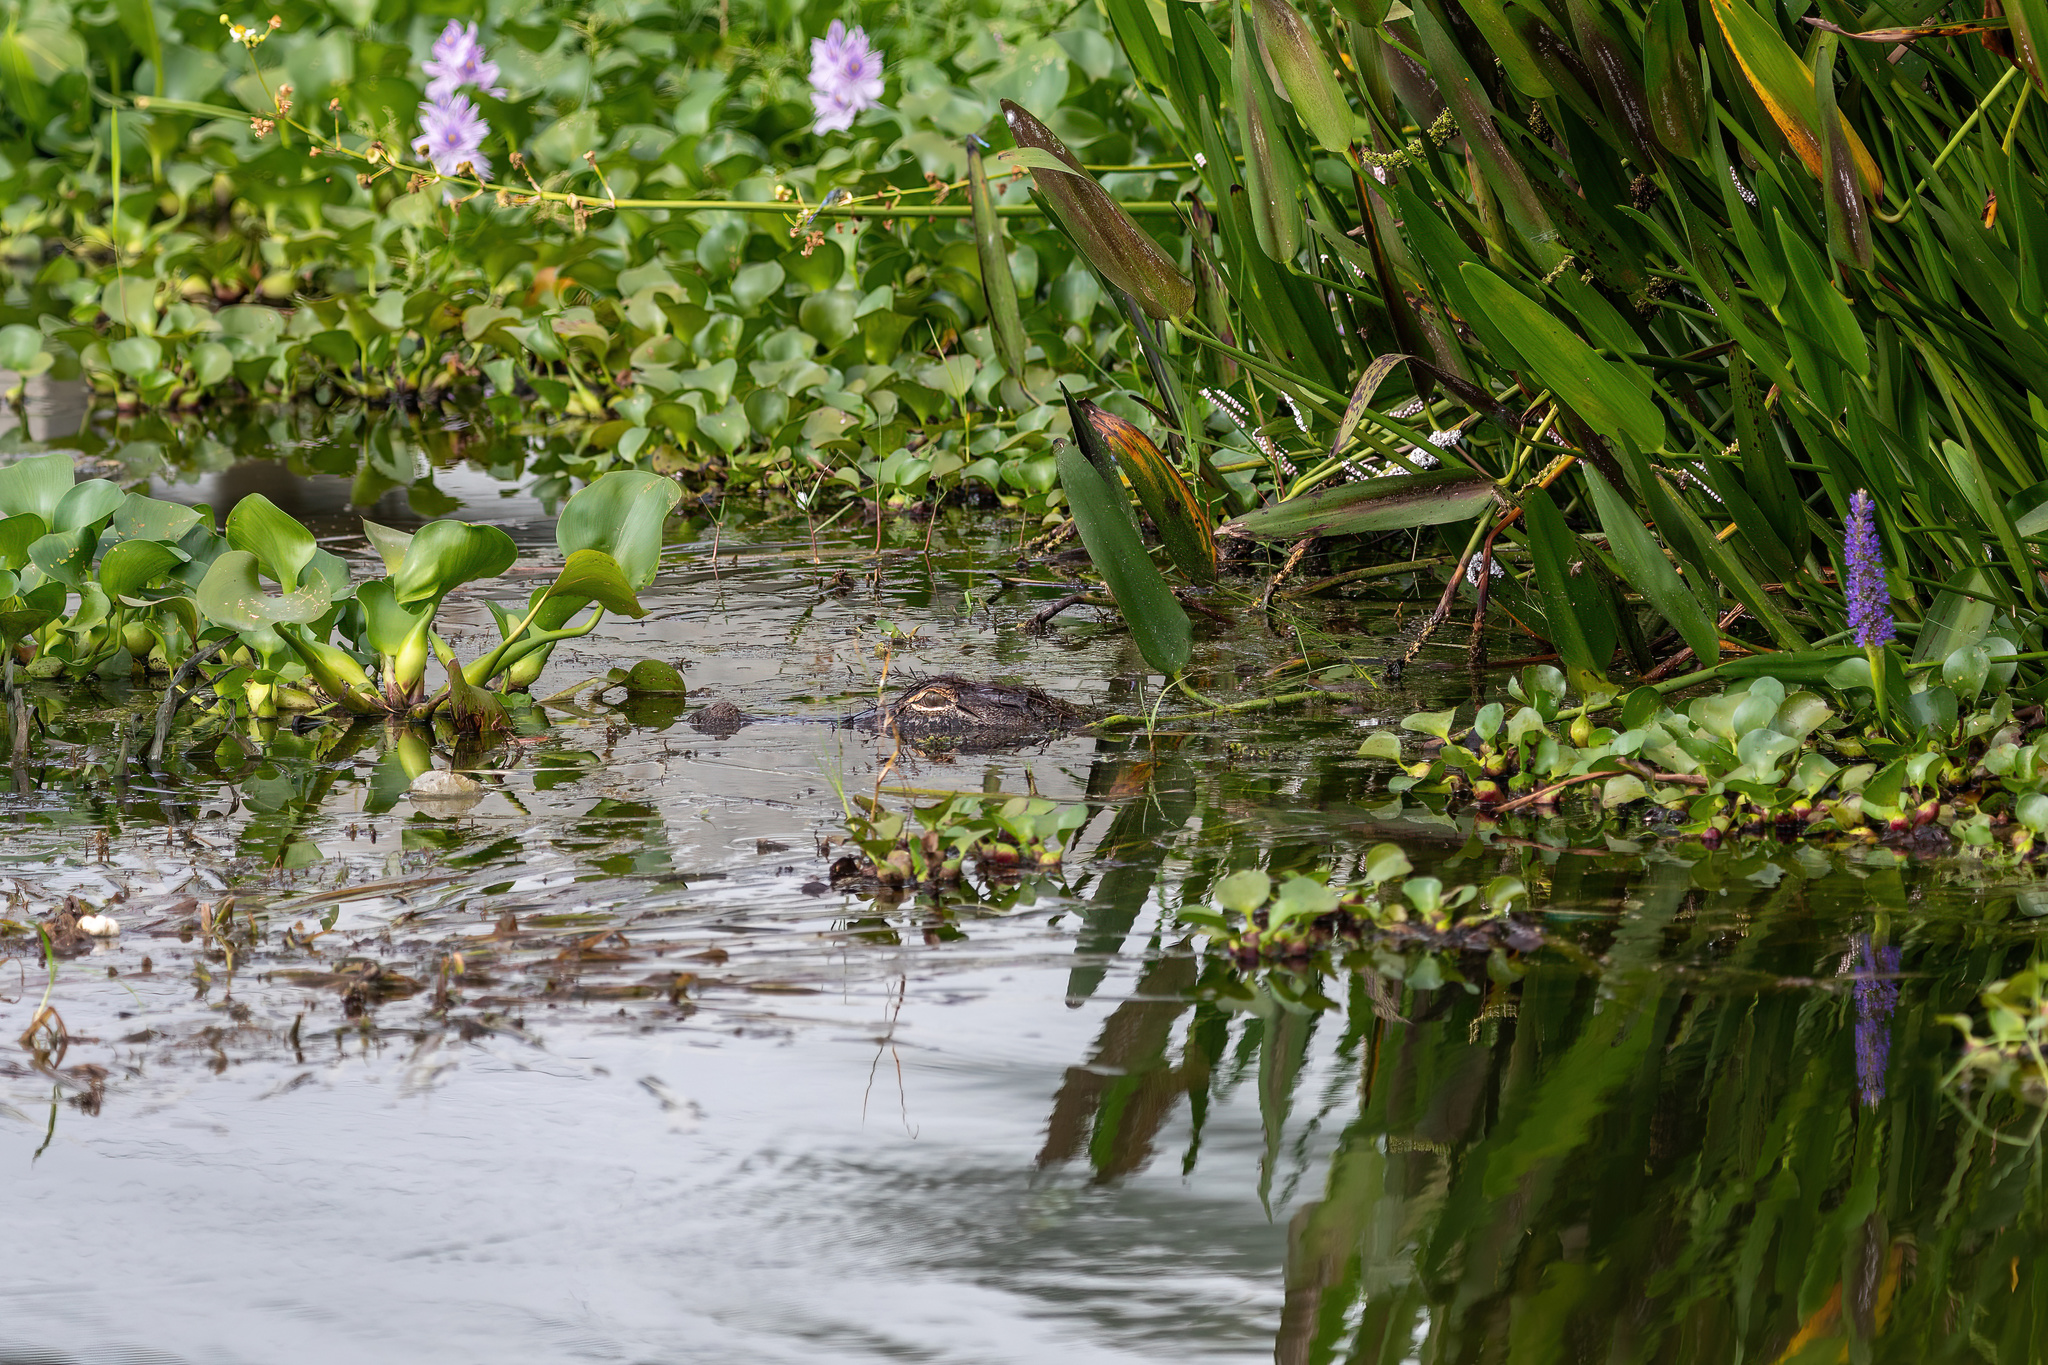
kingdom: Animalia
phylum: Chordata
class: Crocodylia
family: Alligatoridae
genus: Alligator
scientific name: Alligator mississippiensis
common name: American alligator
